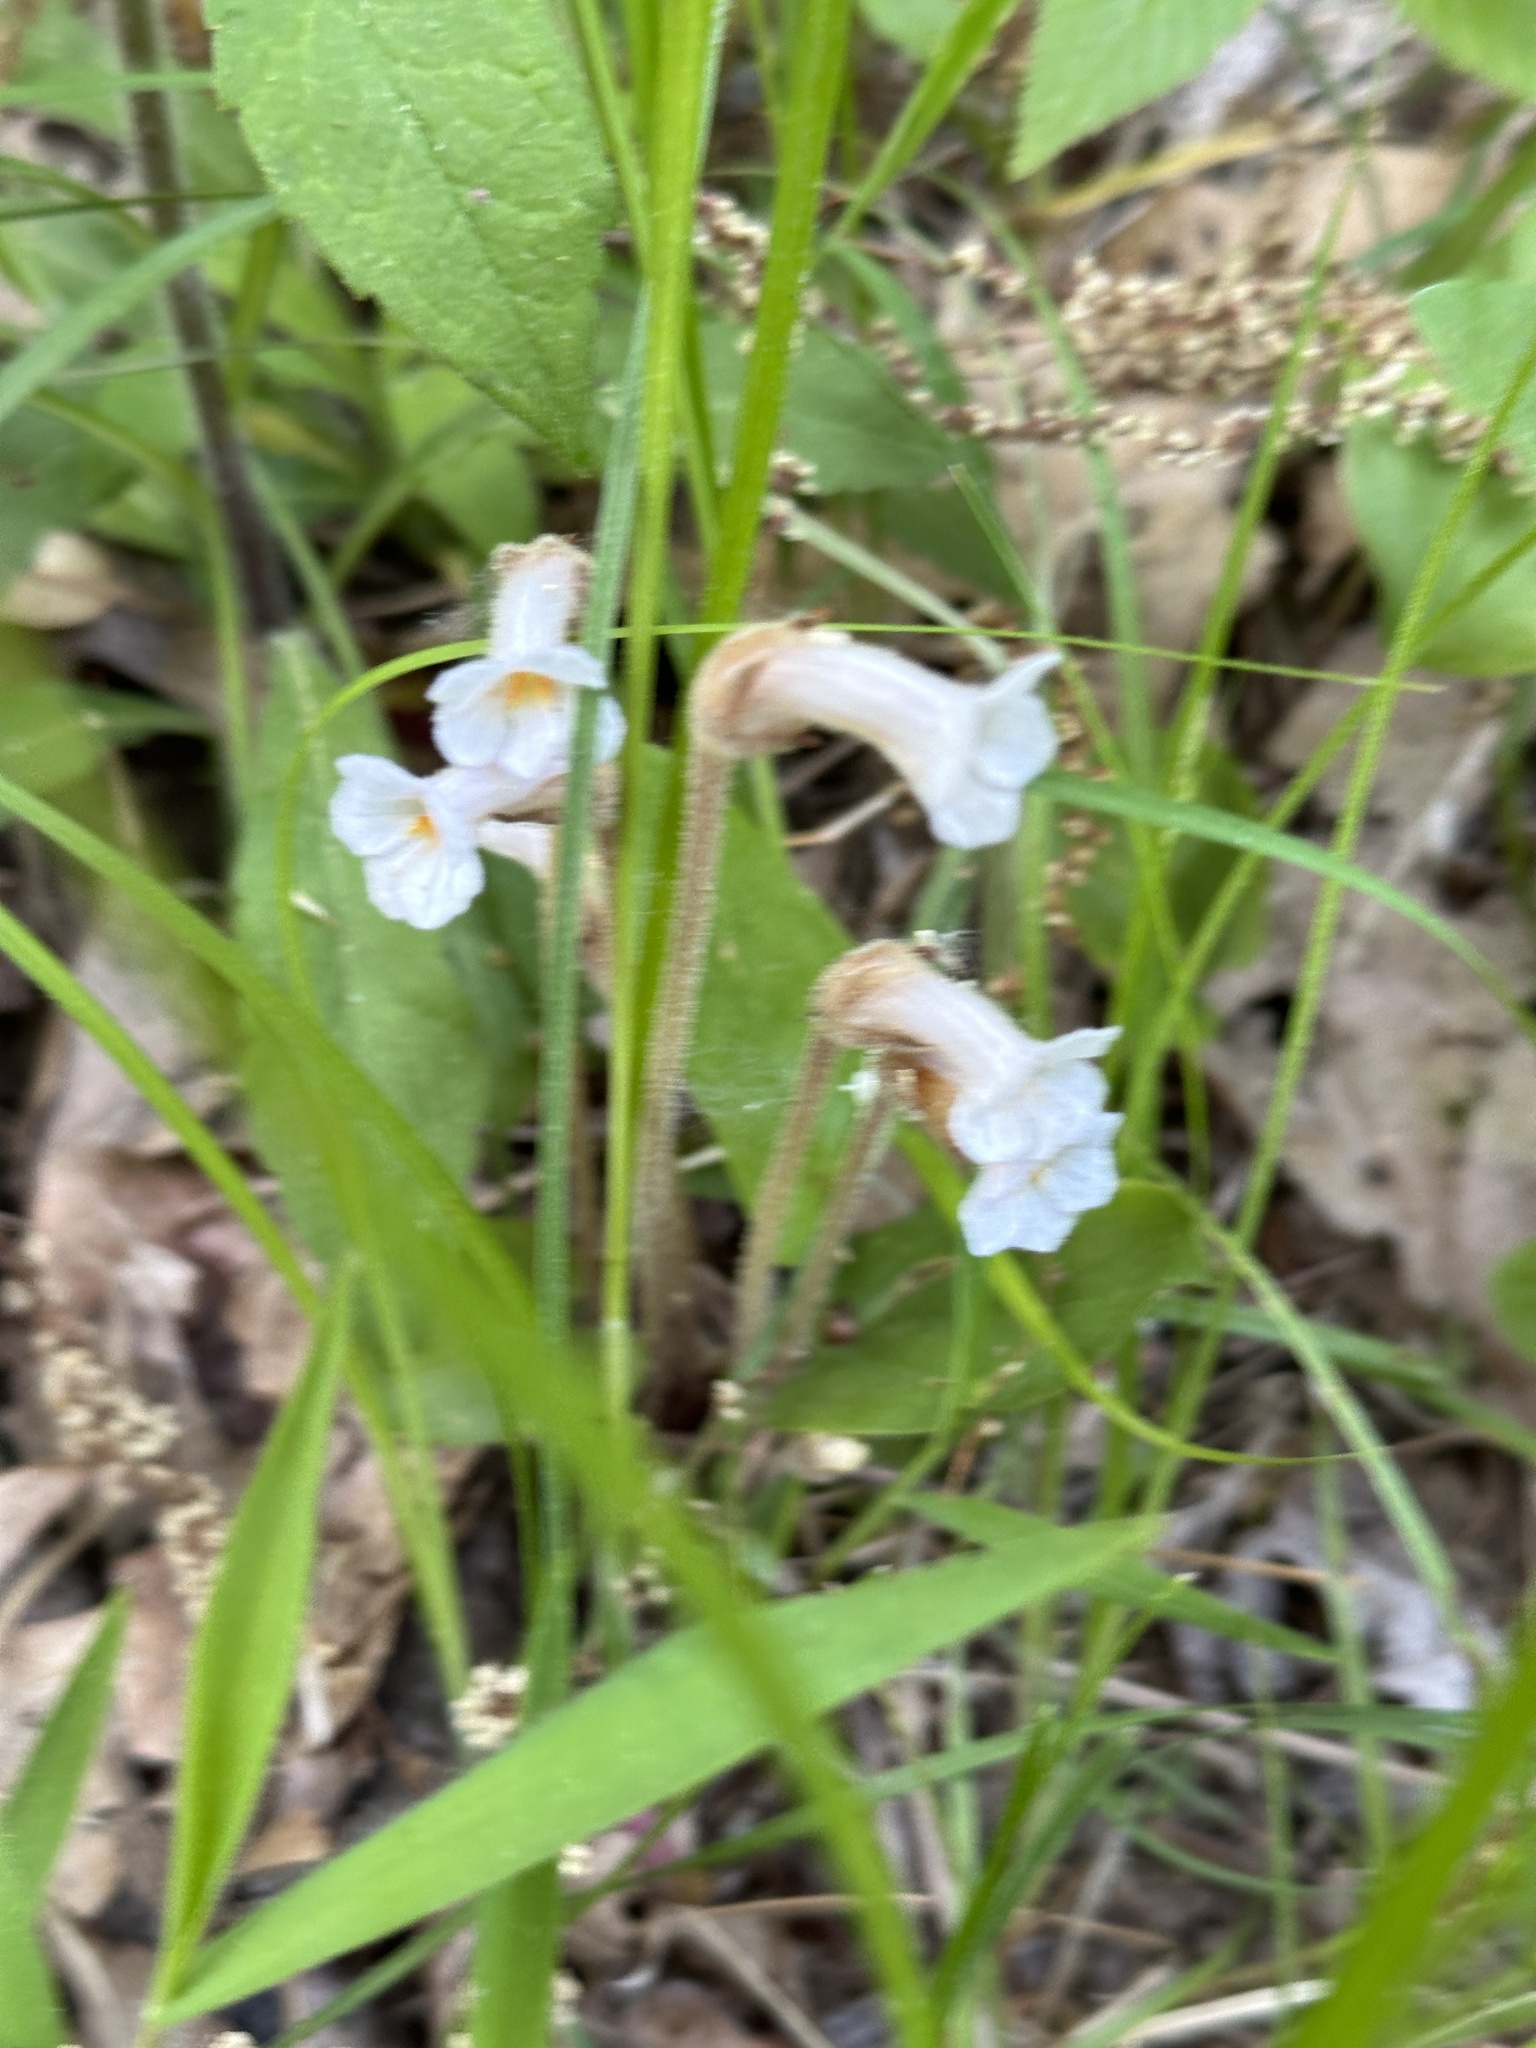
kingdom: Plantae
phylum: Tracheophyta
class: Magnoliopsida
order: Lamiales
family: Orobanchaceae
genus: Aphyllon
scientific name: Aphyllon uniflorum
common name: One-flowered broomrape
